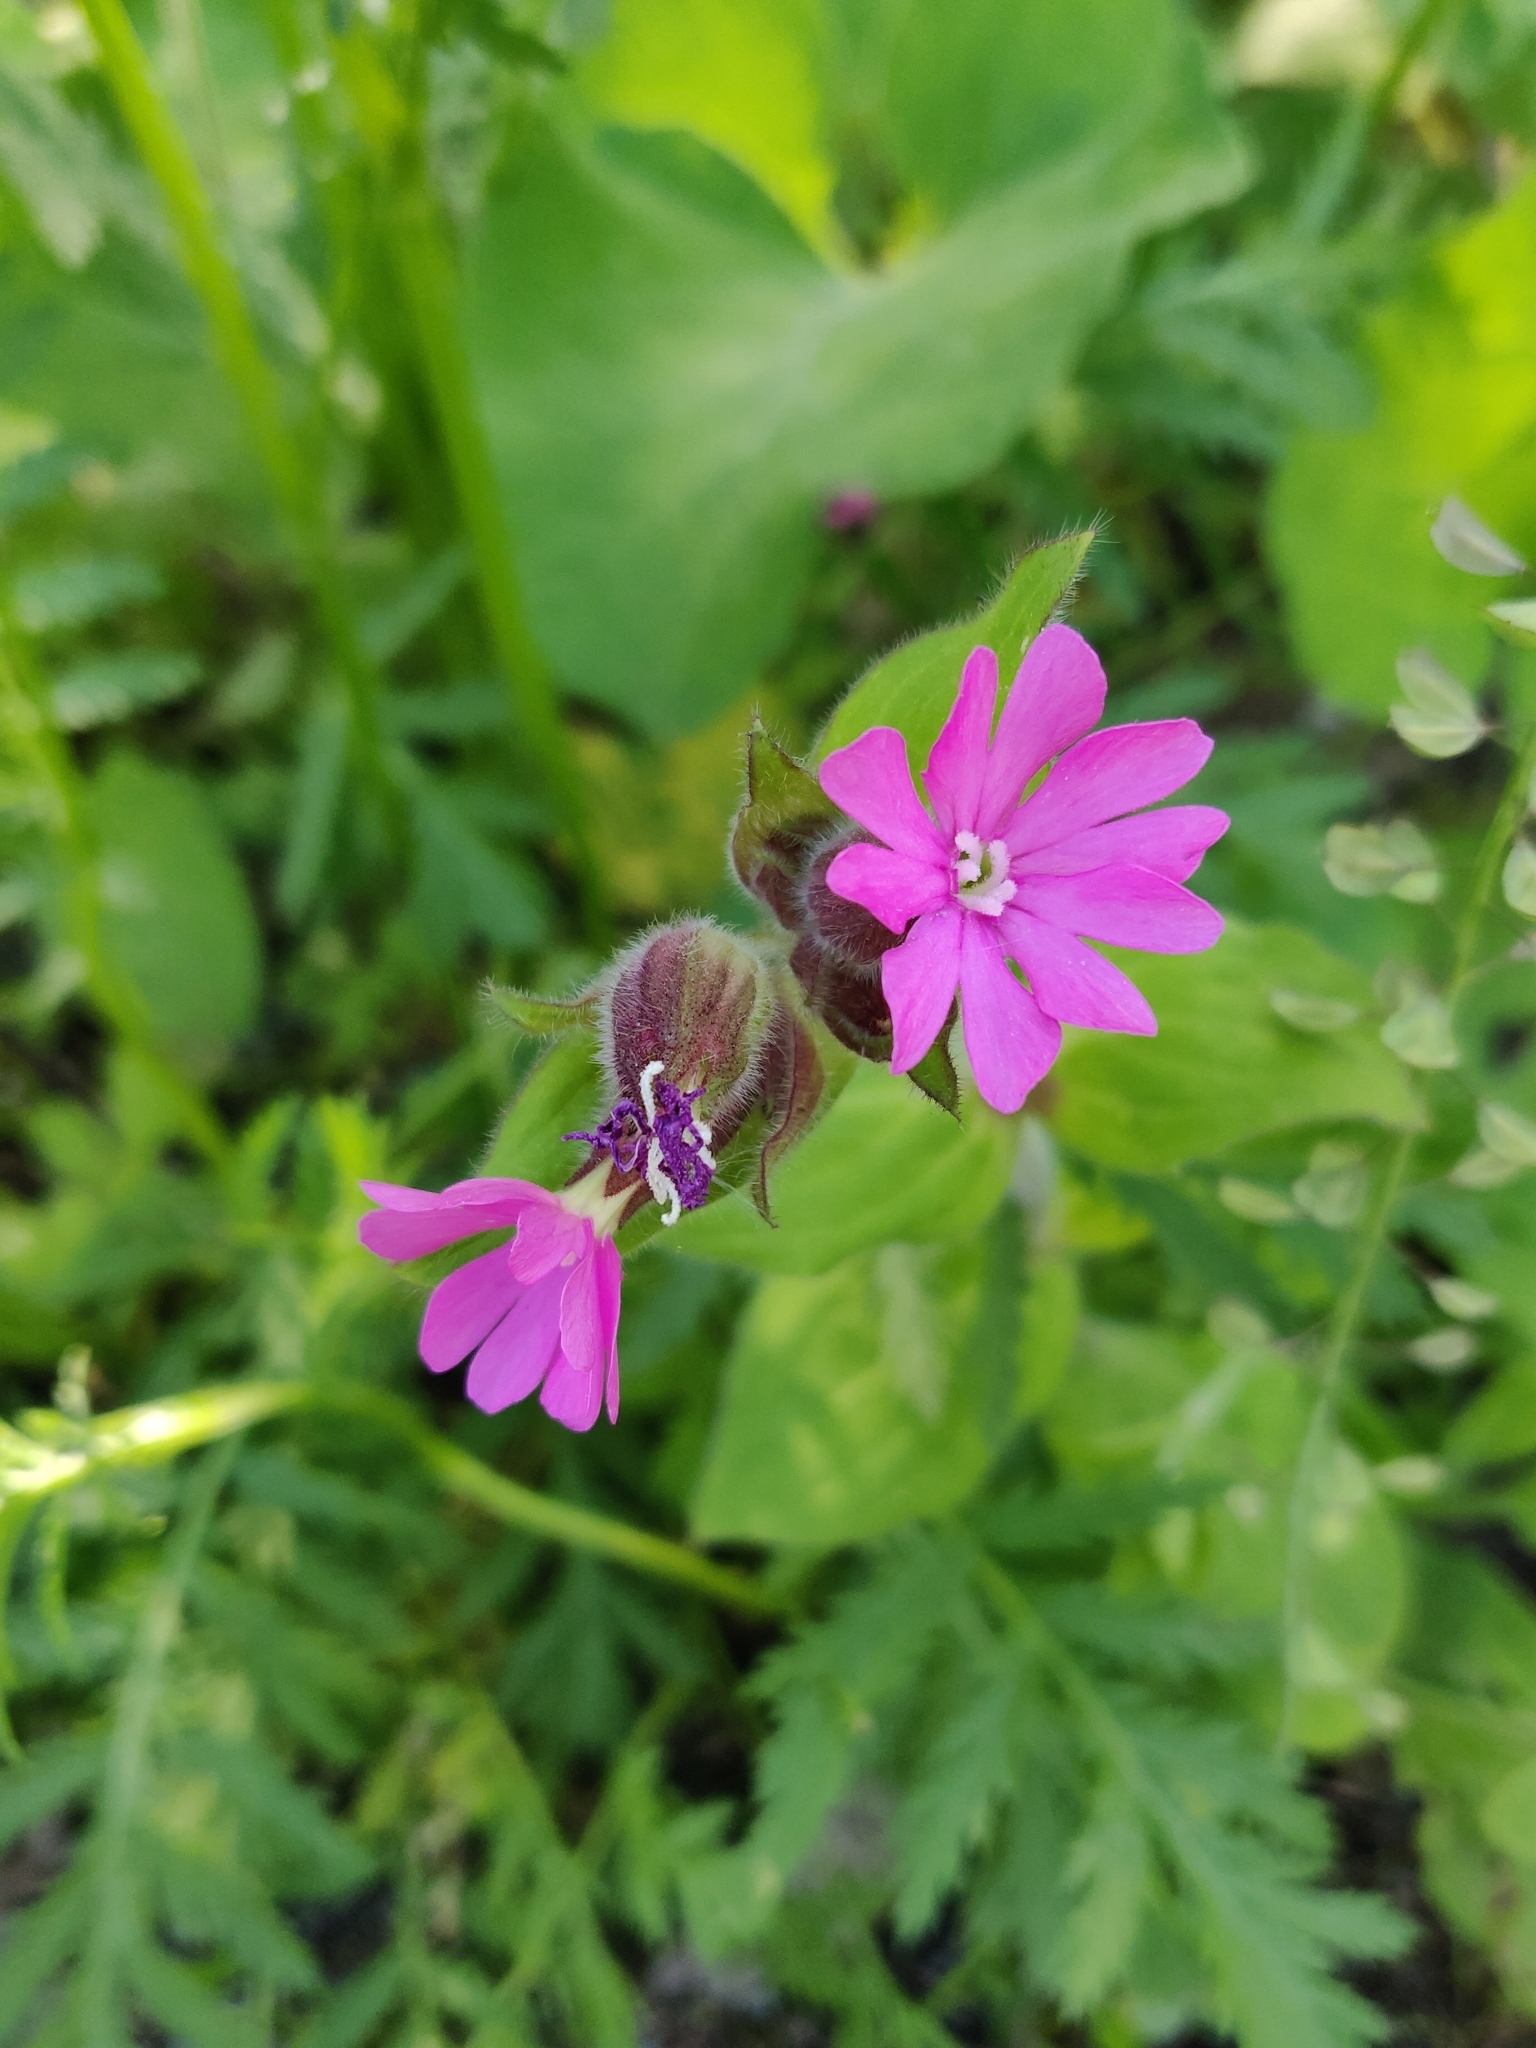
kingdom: Plantae
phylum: Tracheophyta
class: Magnoliopsida
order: Caryophyllales
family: Caryophyllaceae
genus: Silene
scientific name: Silene dioica
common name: Red campion
